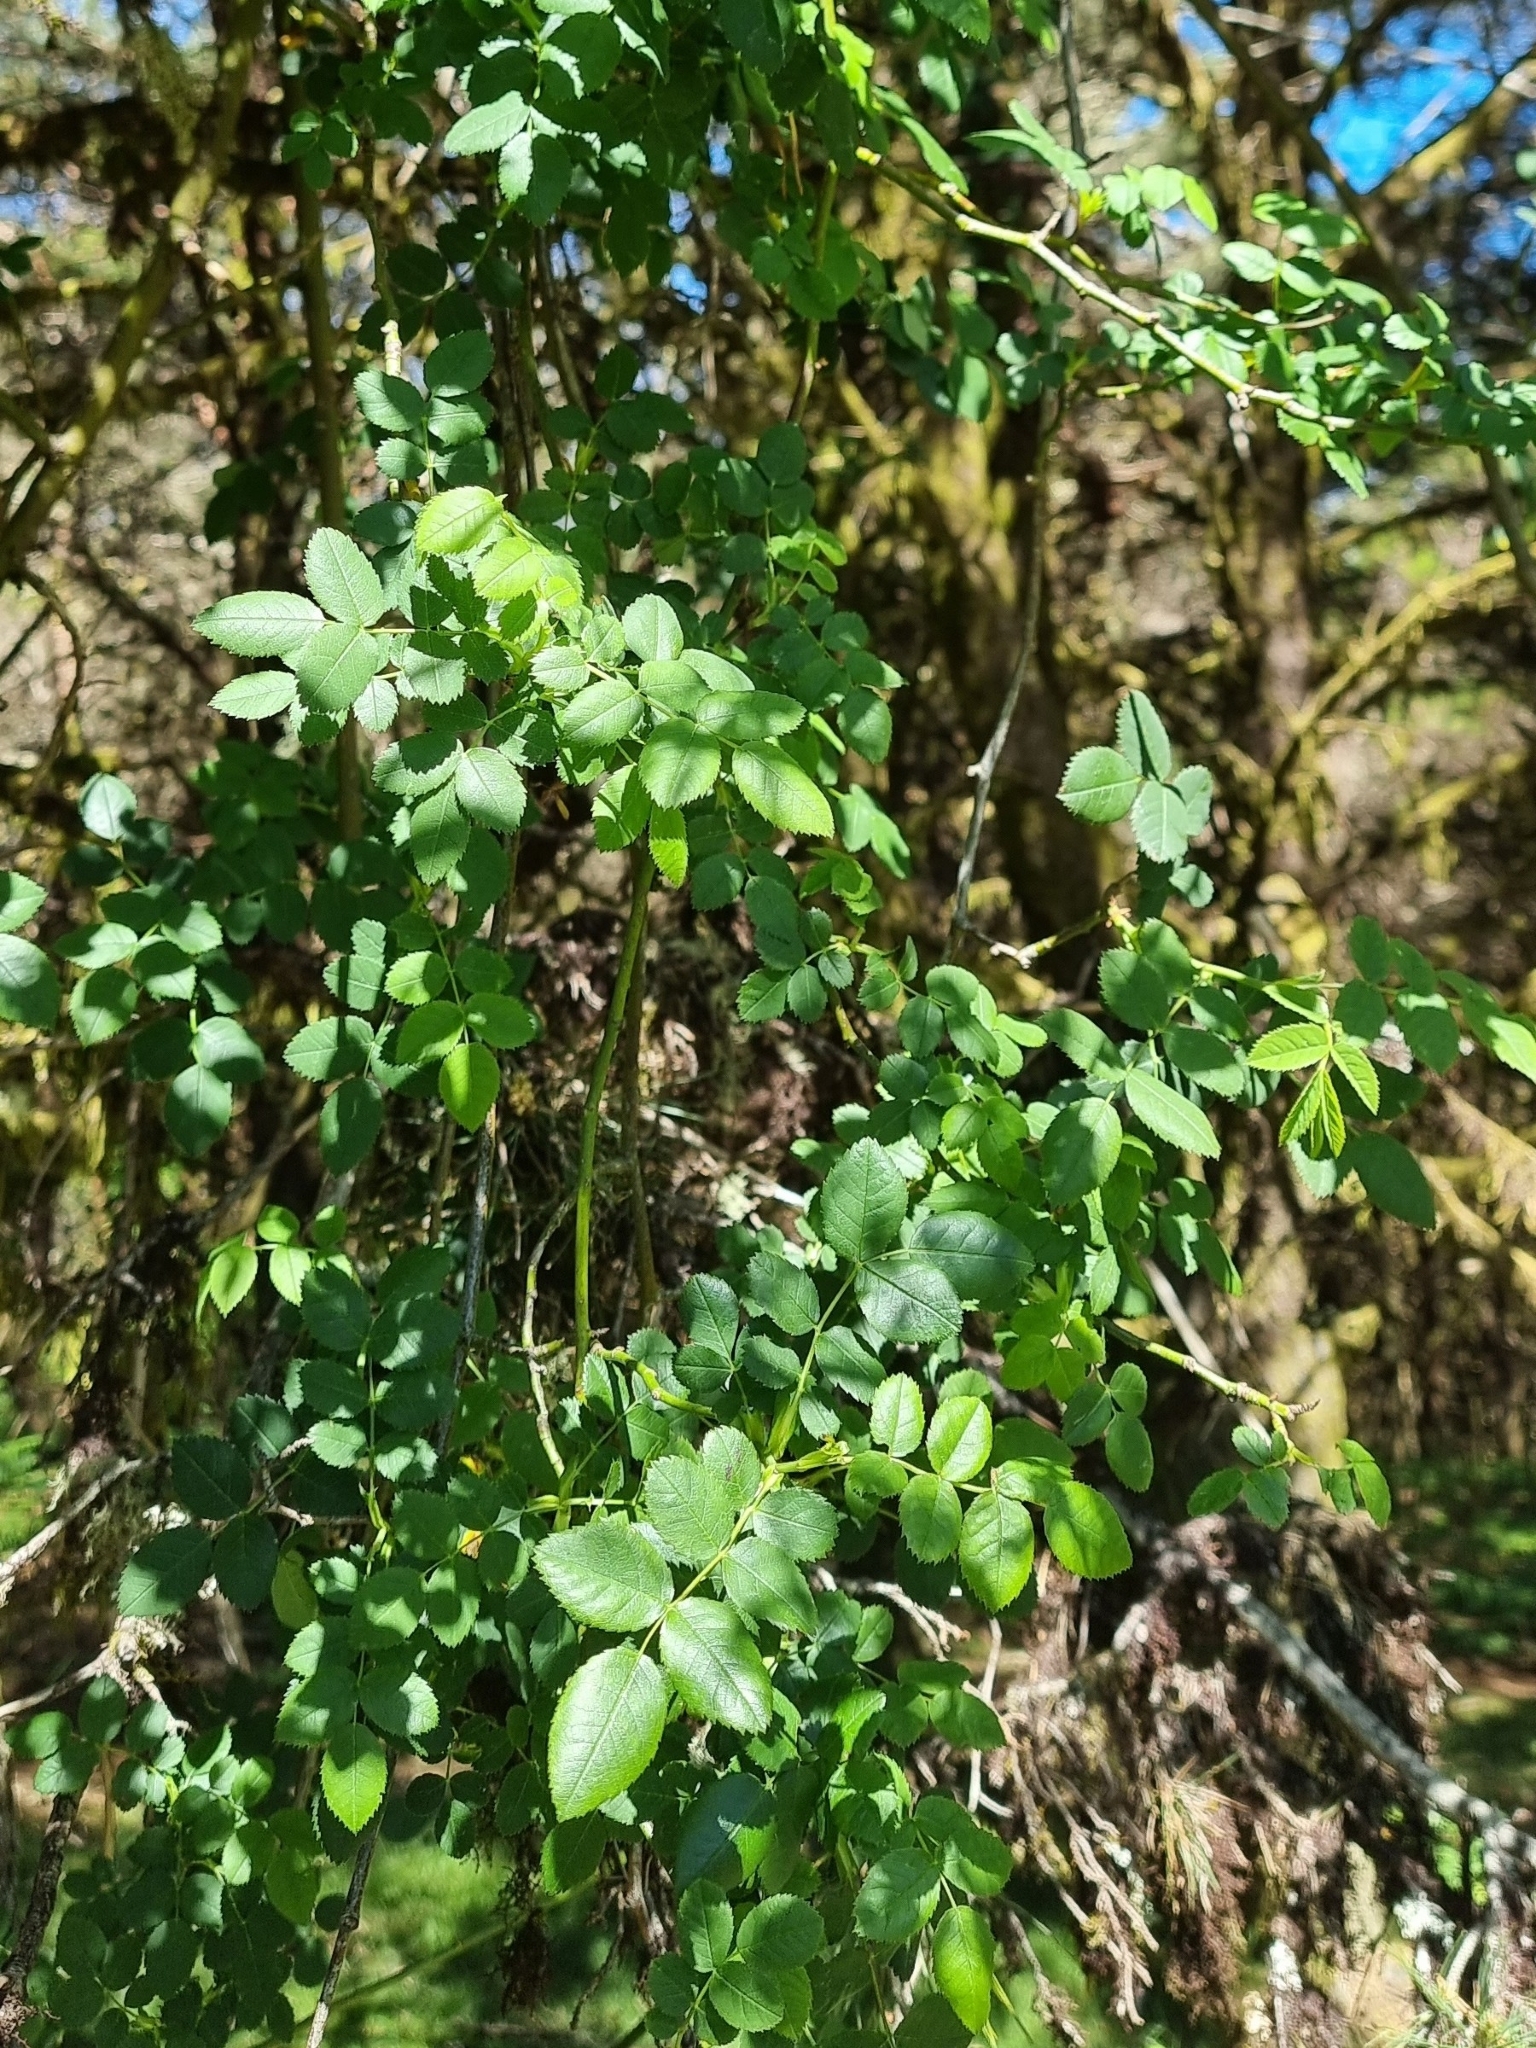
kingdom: Plantae
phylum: Tracheophyta
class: Magnoliopsida
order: Rosales
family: Rosaceae
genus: Rosa
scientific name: Rosa canina
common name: Dog rose
